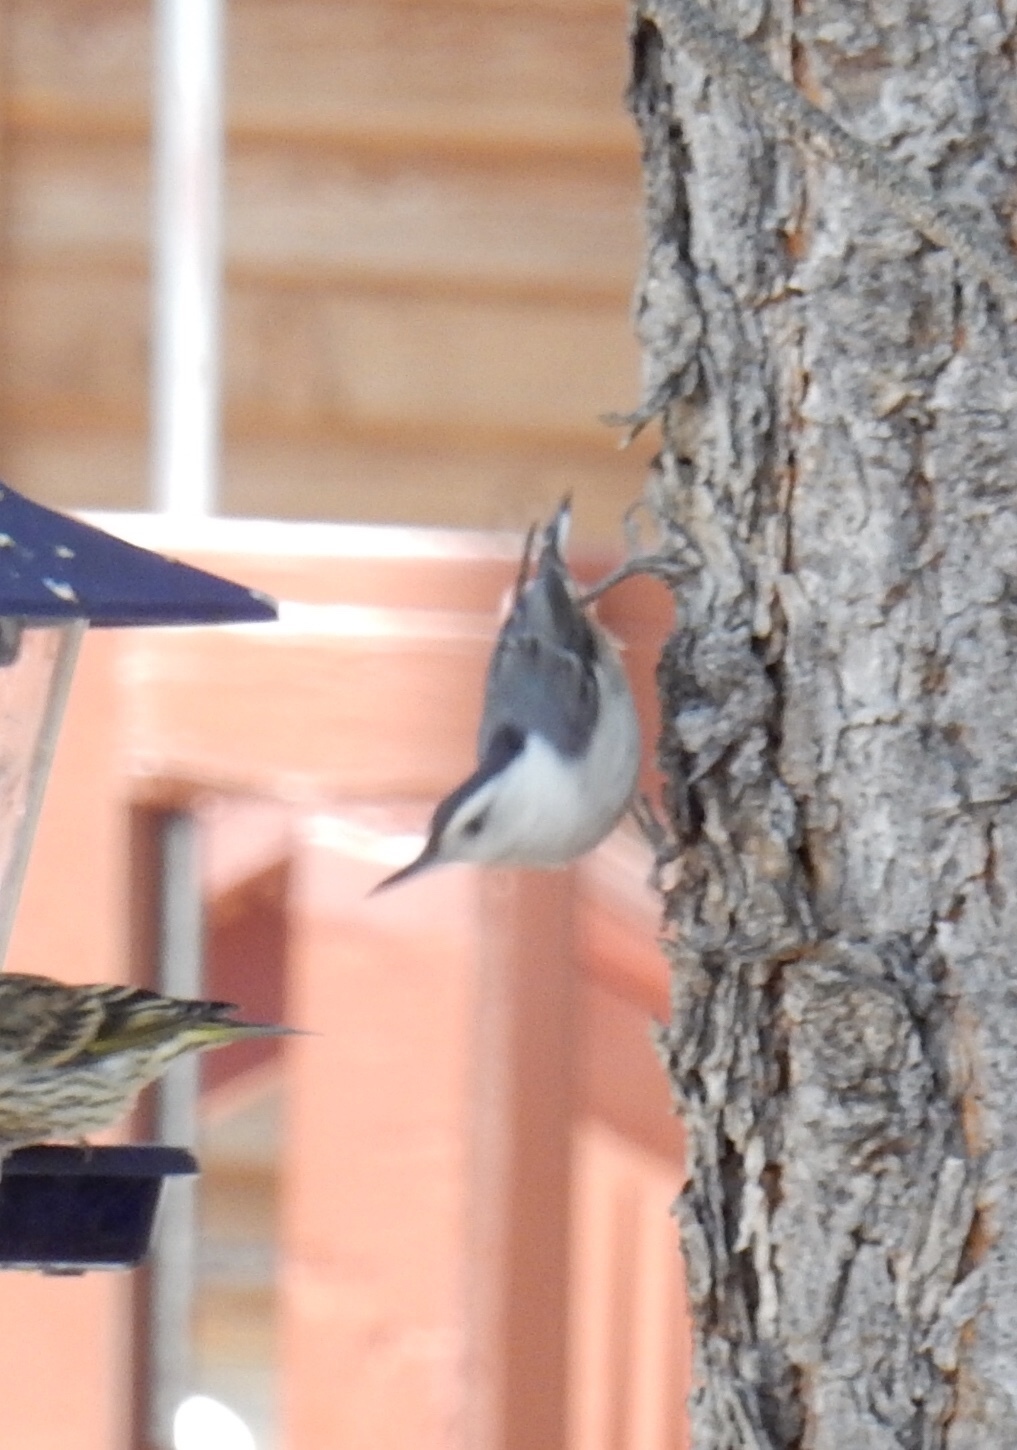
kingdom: Animalia
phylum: Chordata
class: Aves
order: Passeriformes
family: Sittidae
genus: Sitta
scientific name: Sitta carolinensis
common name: White-breasted nuthatch
